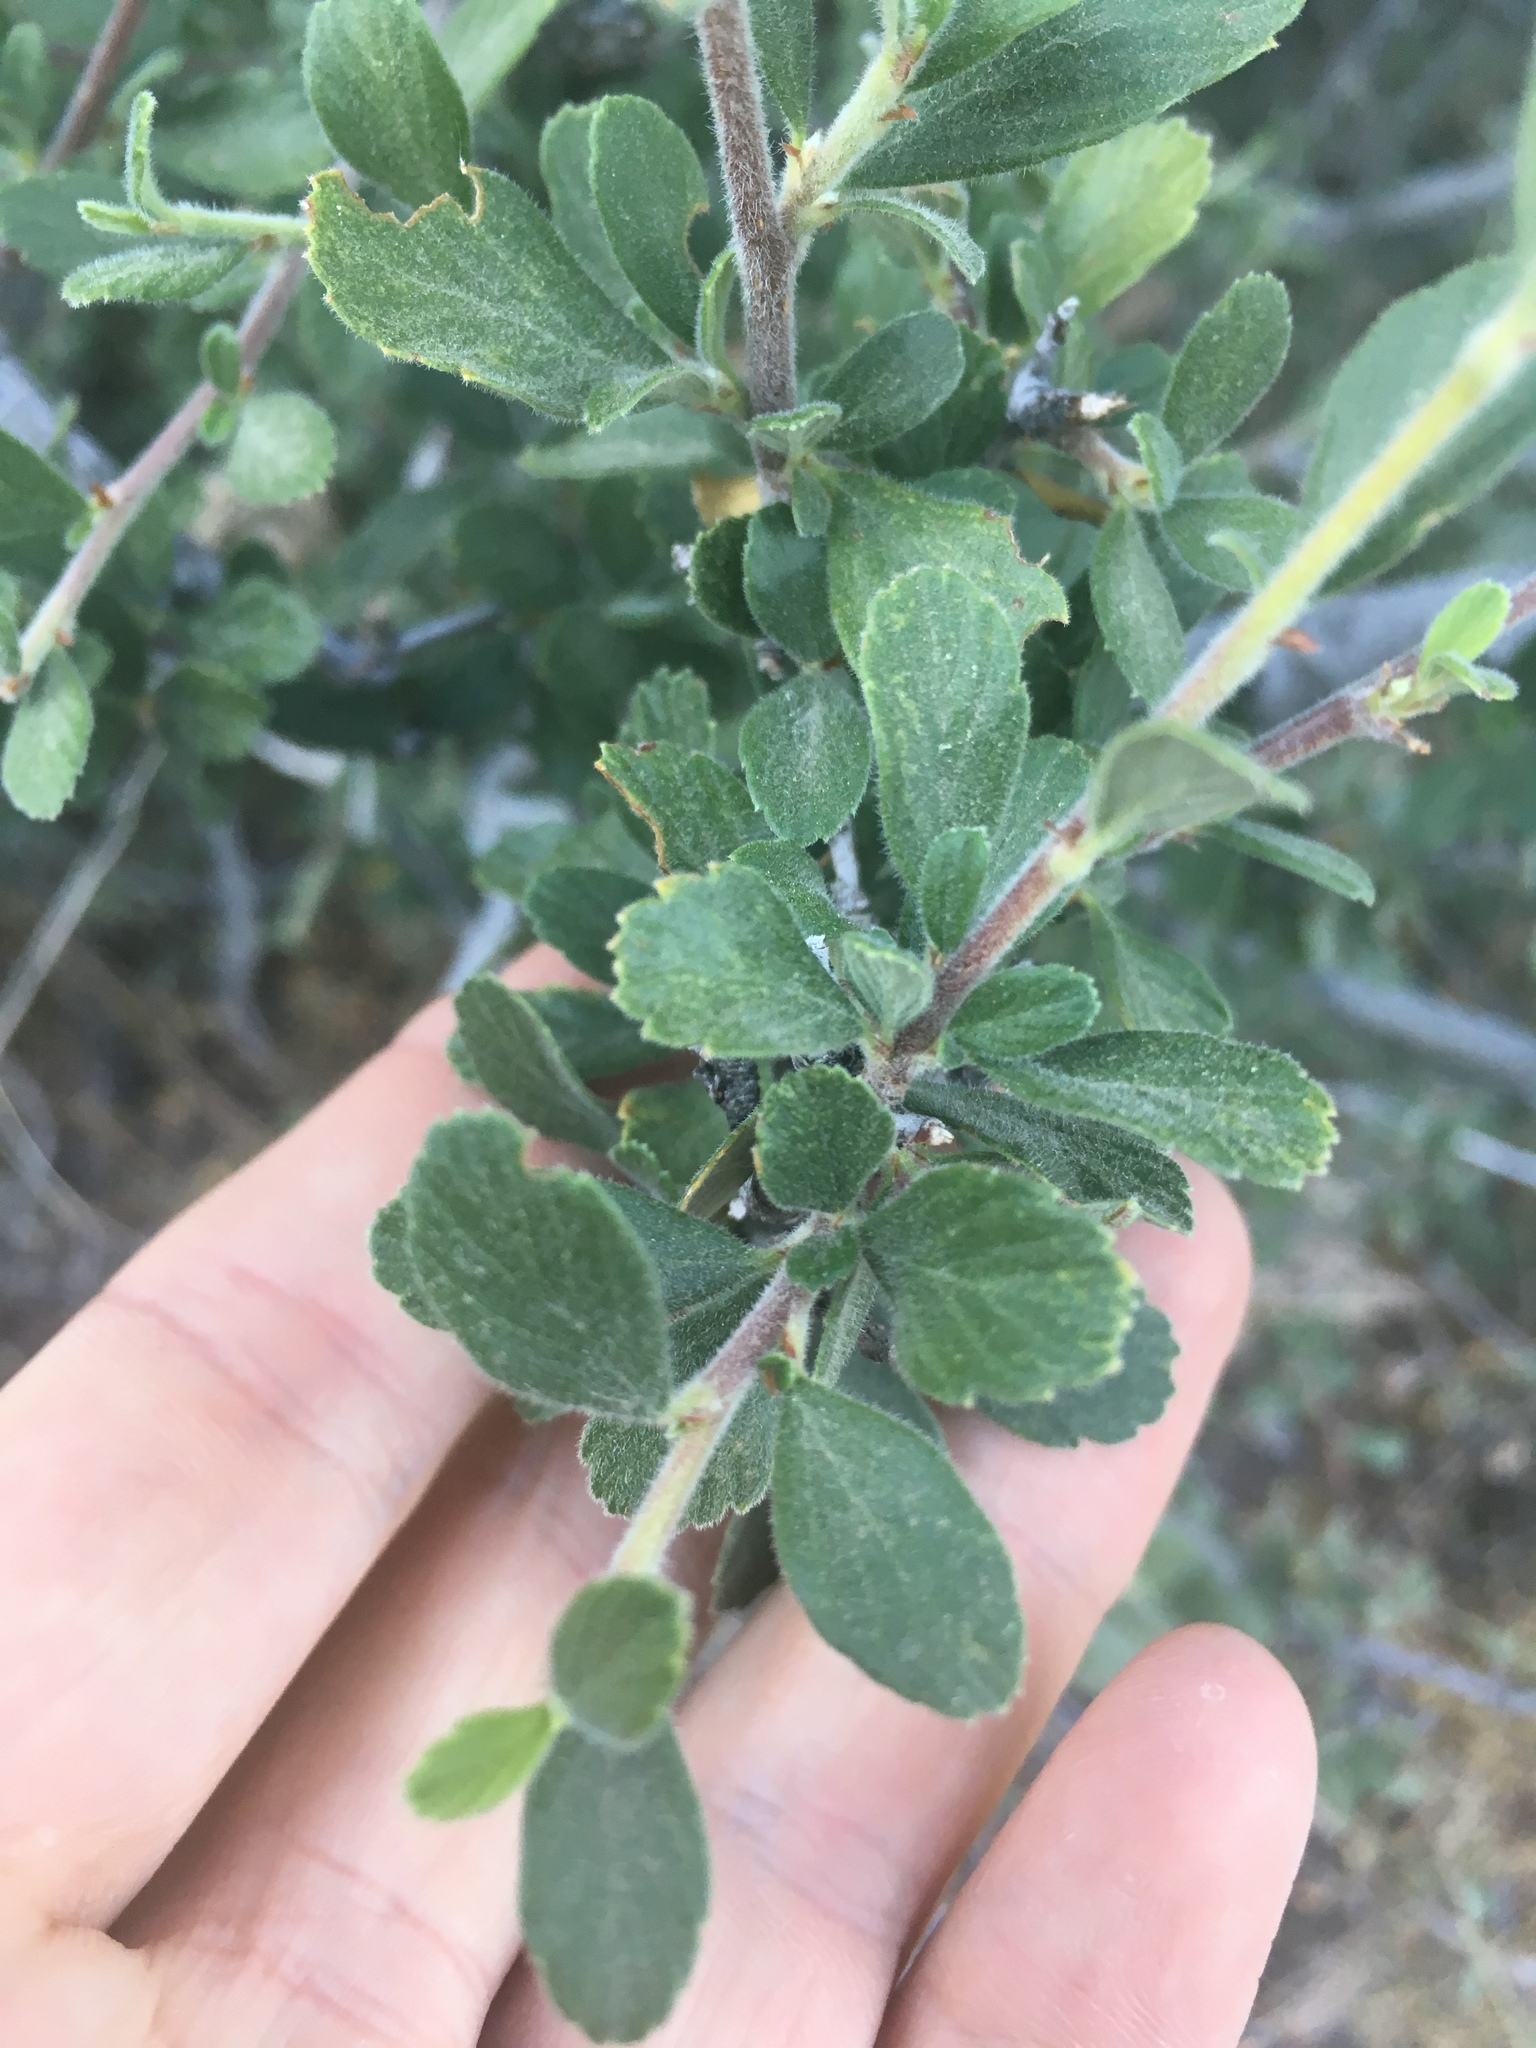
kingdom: Plantae
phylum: Tracheophyta
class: Magnoliopsida
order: Rosales
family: Rosaceae
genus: Cercocarpus
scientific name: Cercocarpus montanus
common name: Alder-leaf cercocarpus
